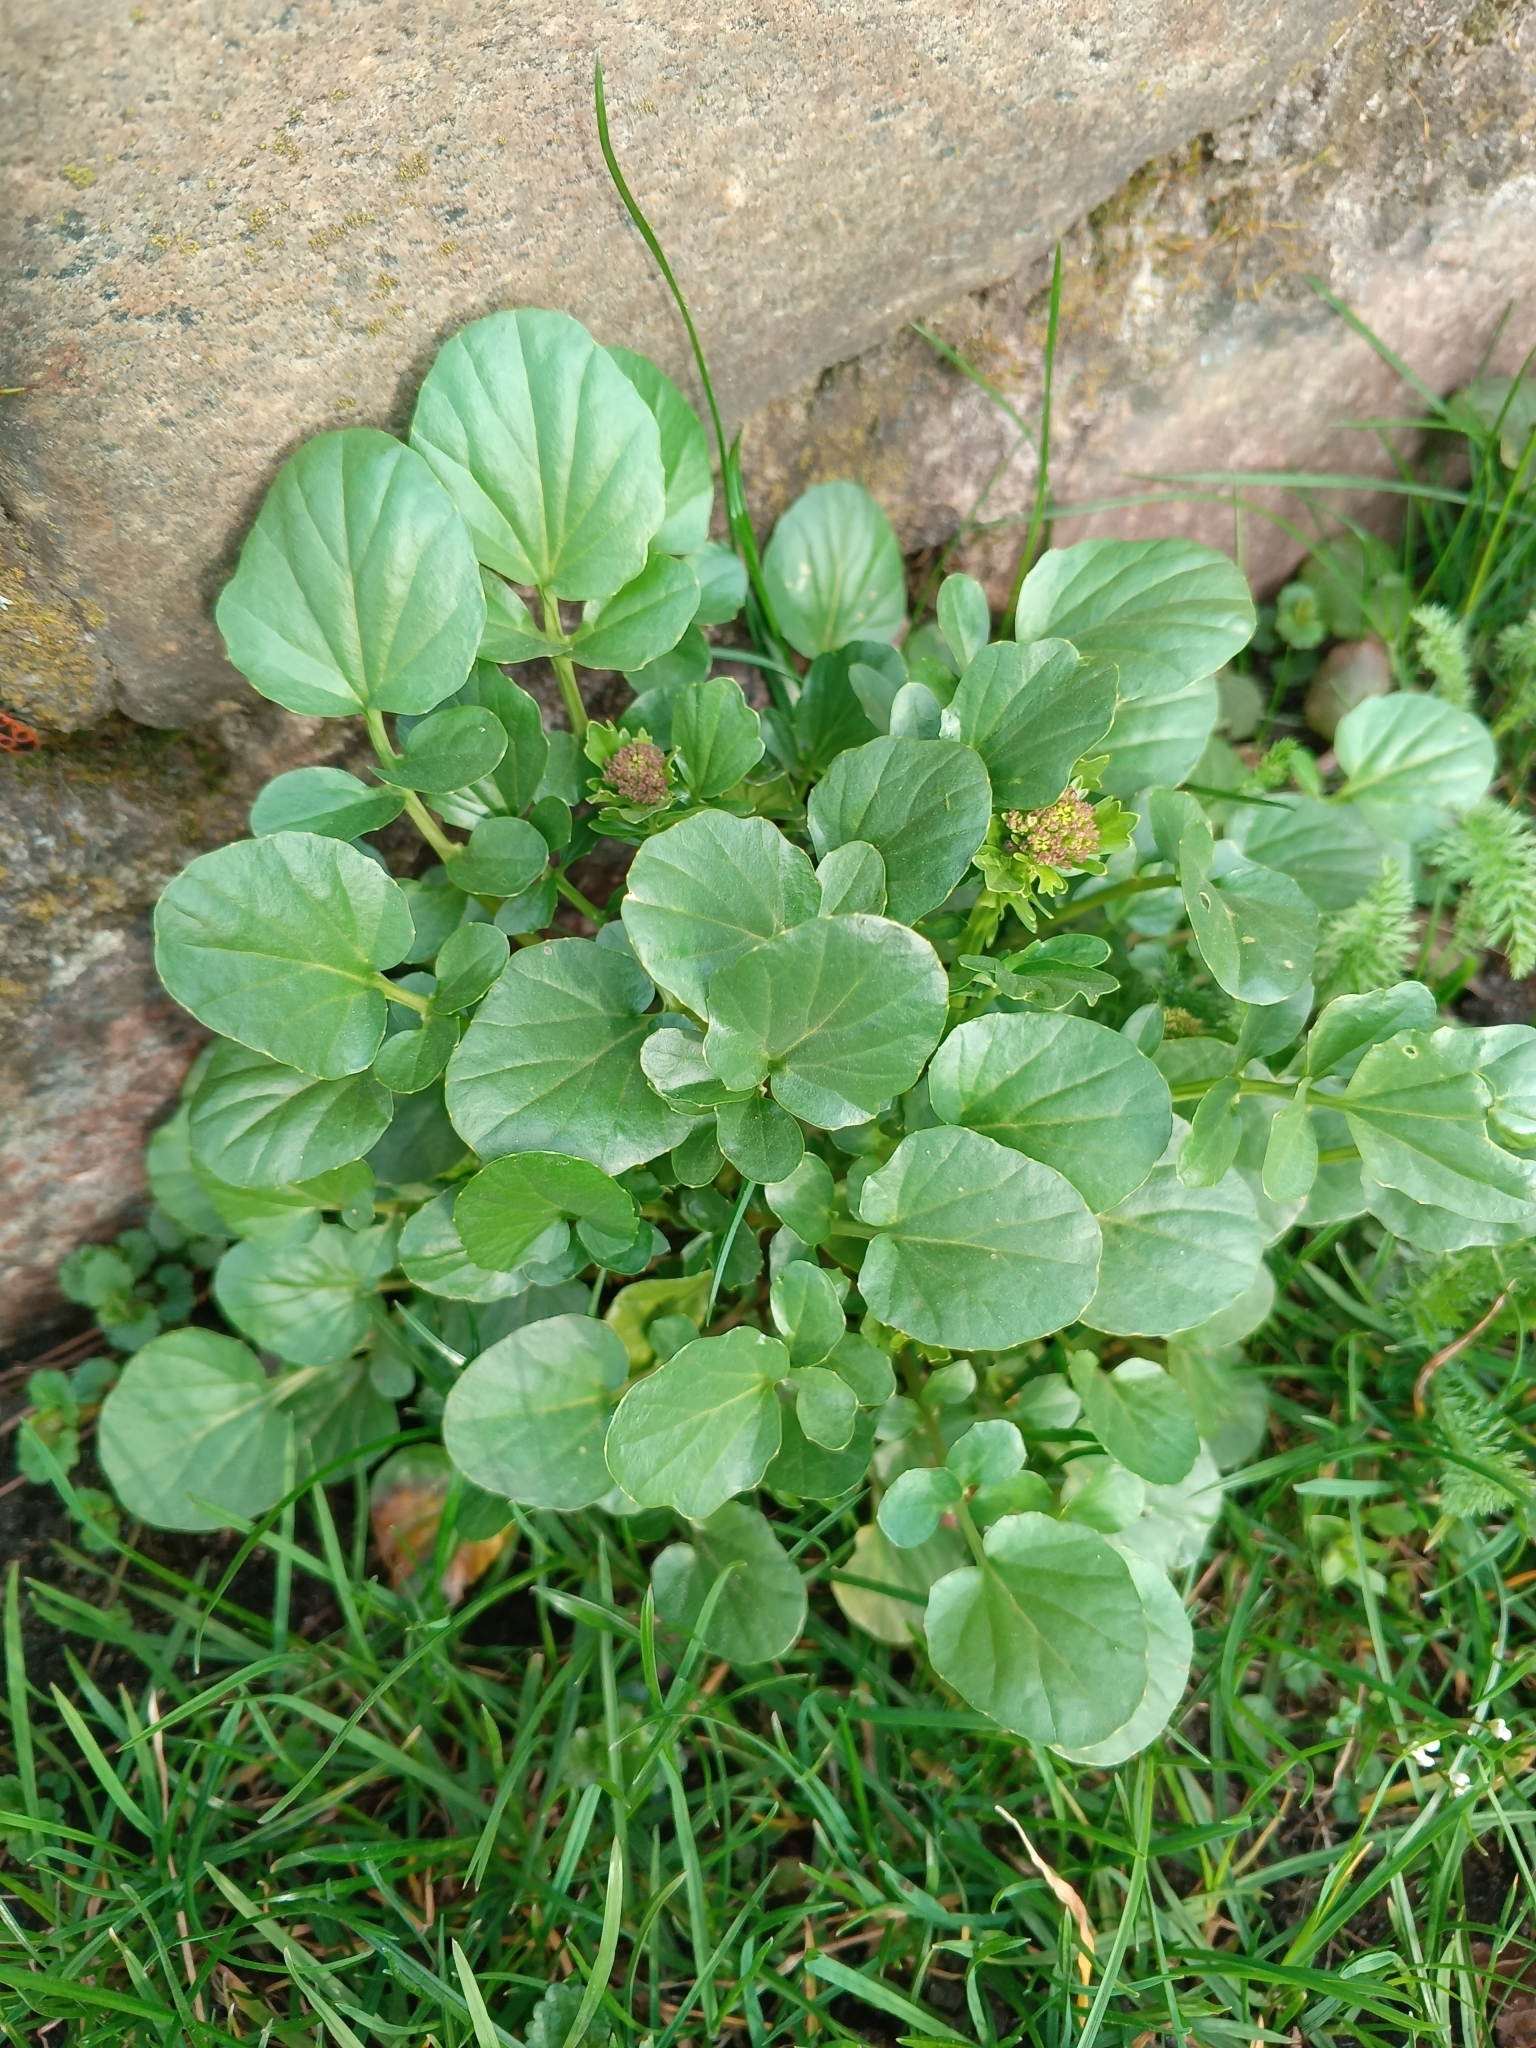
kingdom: Plantae
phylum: Tracheophyta
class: Magnoliopsida
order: Brassicales
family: Brassicaceae
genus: Barbarea
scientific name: Barbarea vulgaris
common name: Cressy-greens
